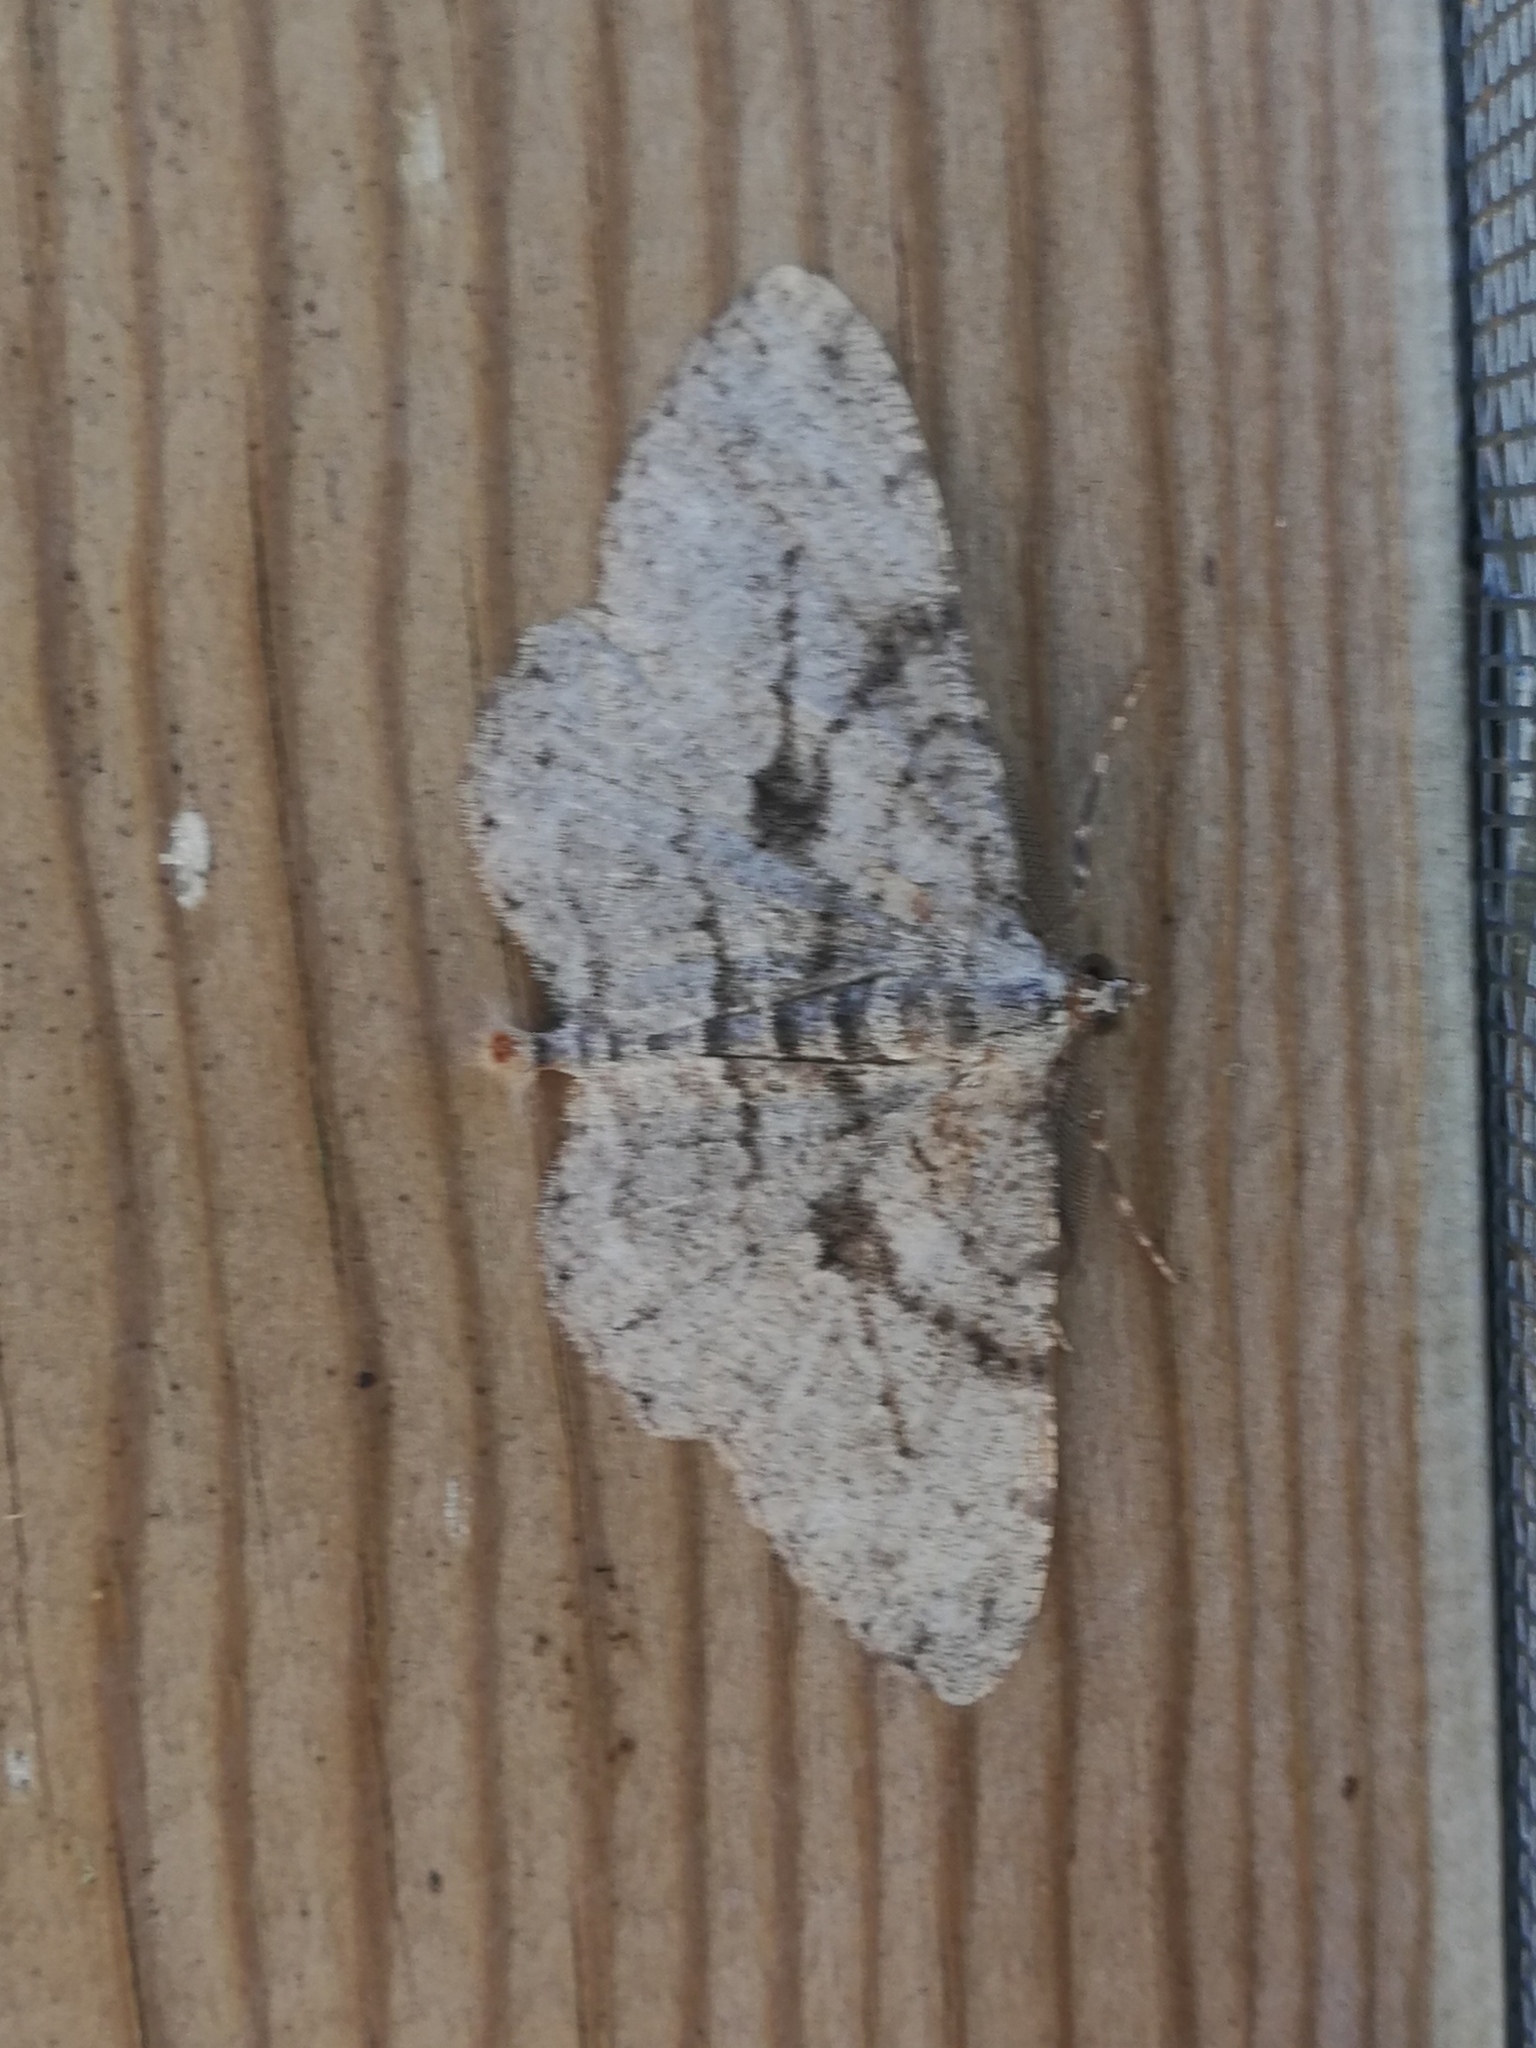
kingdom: Animalia
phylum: Arthropoda
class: Insecta
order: Lepidoptera
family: Geometridae
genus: Peribatodes
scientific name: Peribatodes perversaria
